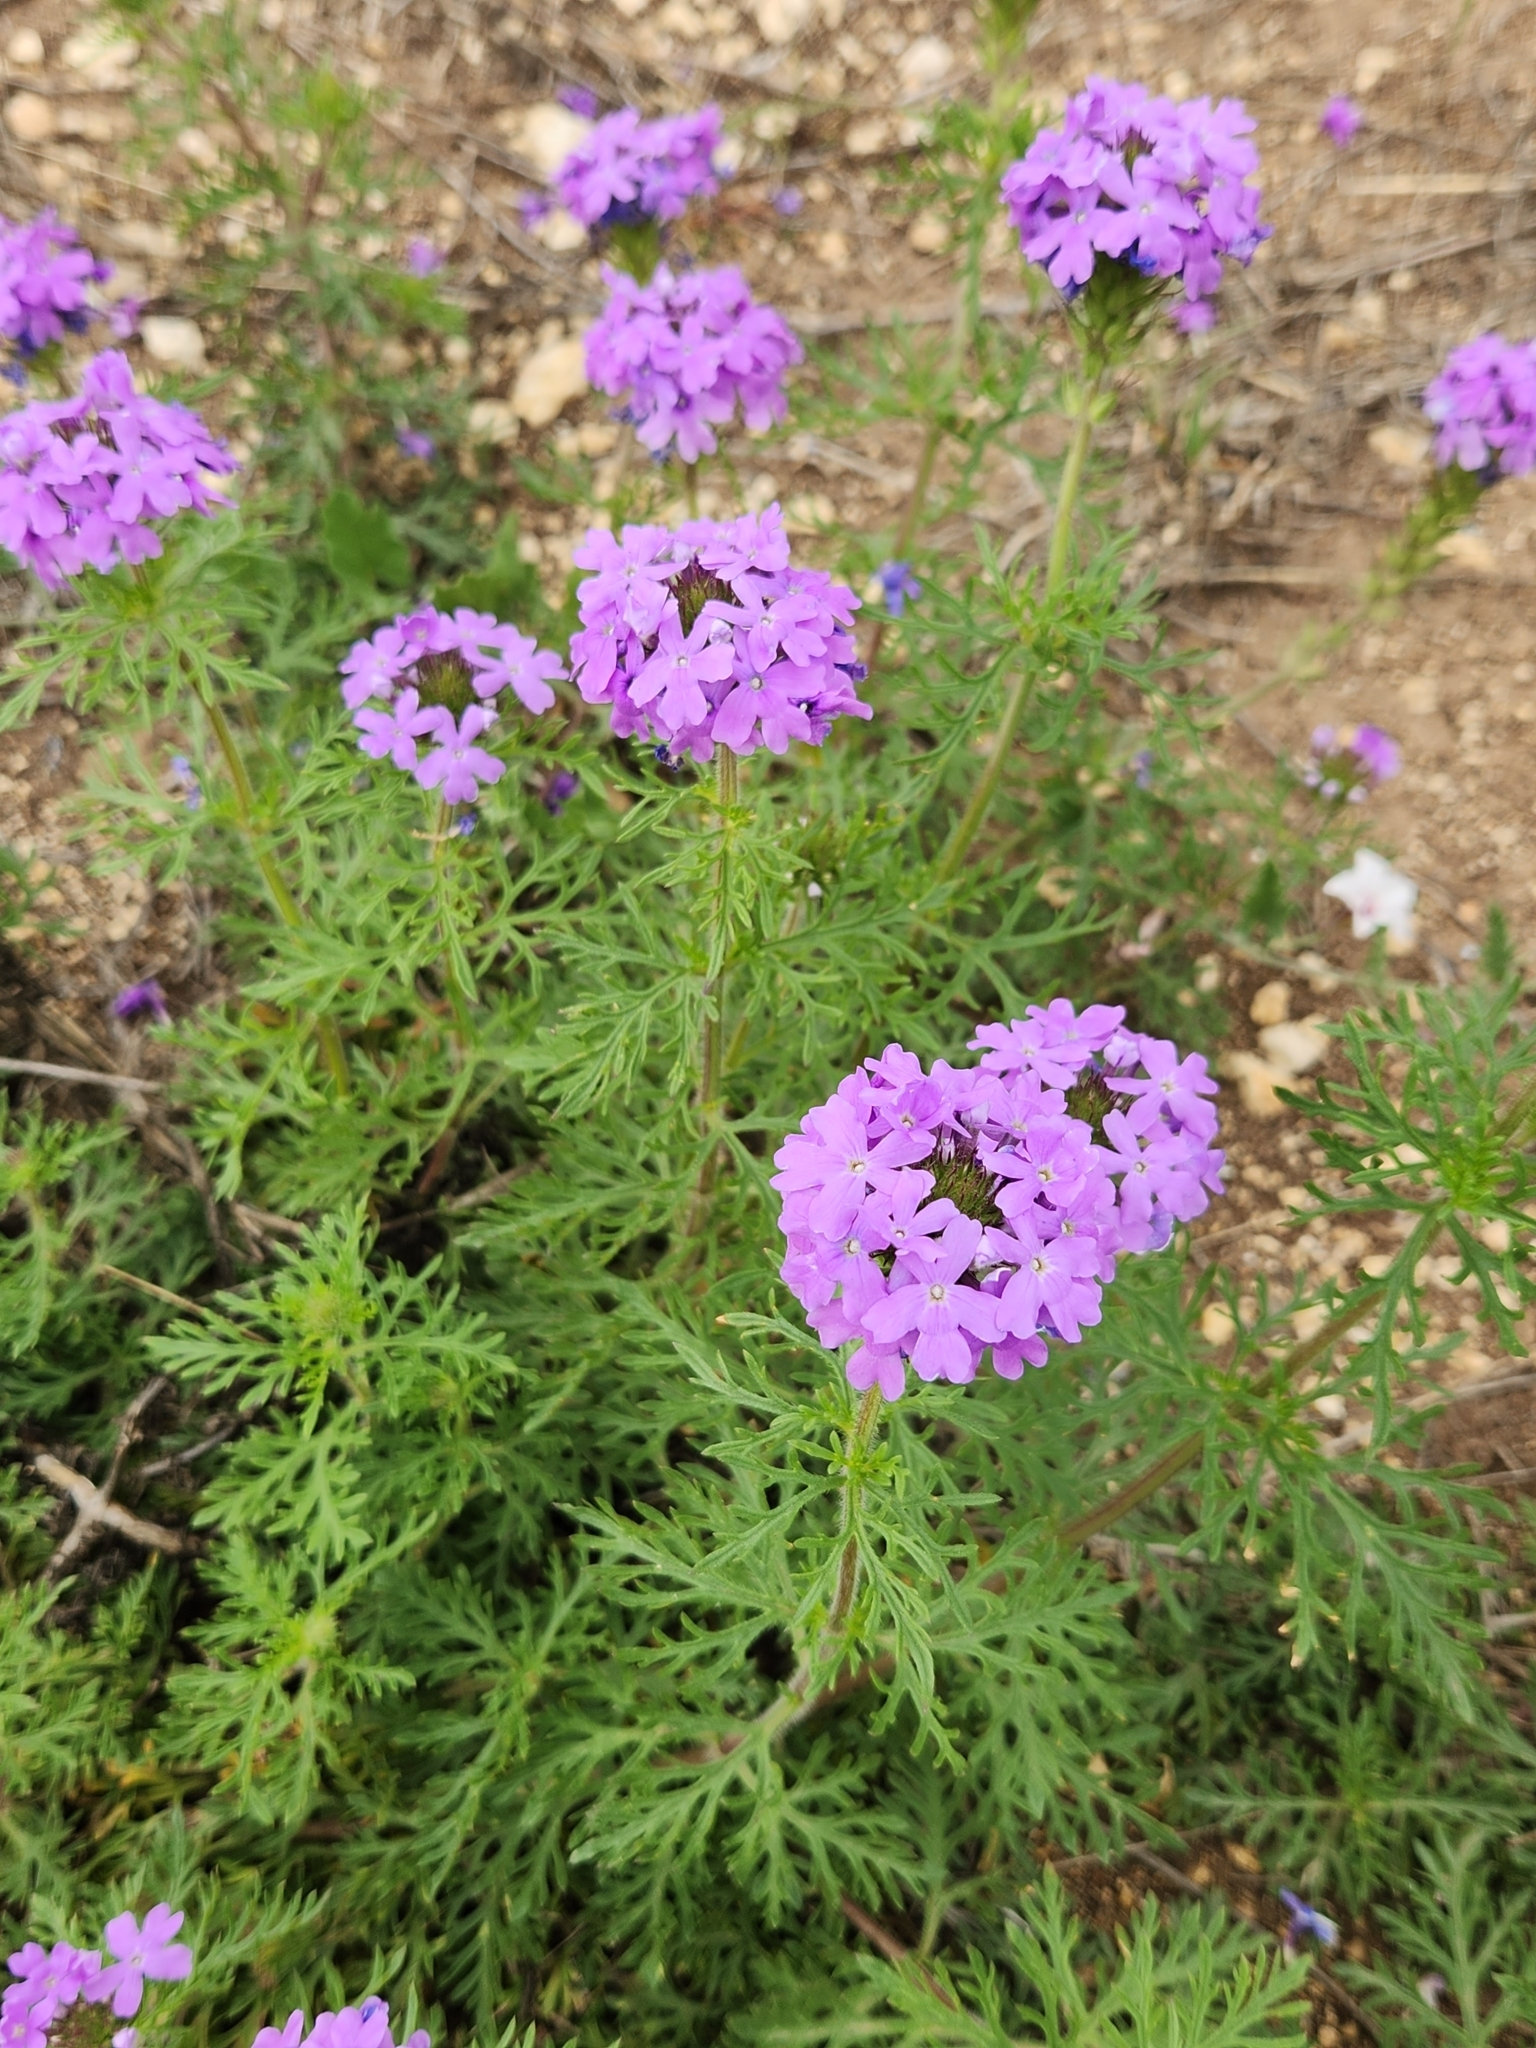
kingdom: Plantae
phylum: Tracheophyta
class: Magnoliopsida
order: Lamiales
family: Verbenaceae
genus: Verbena
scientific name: Verbena bipinnatifida
